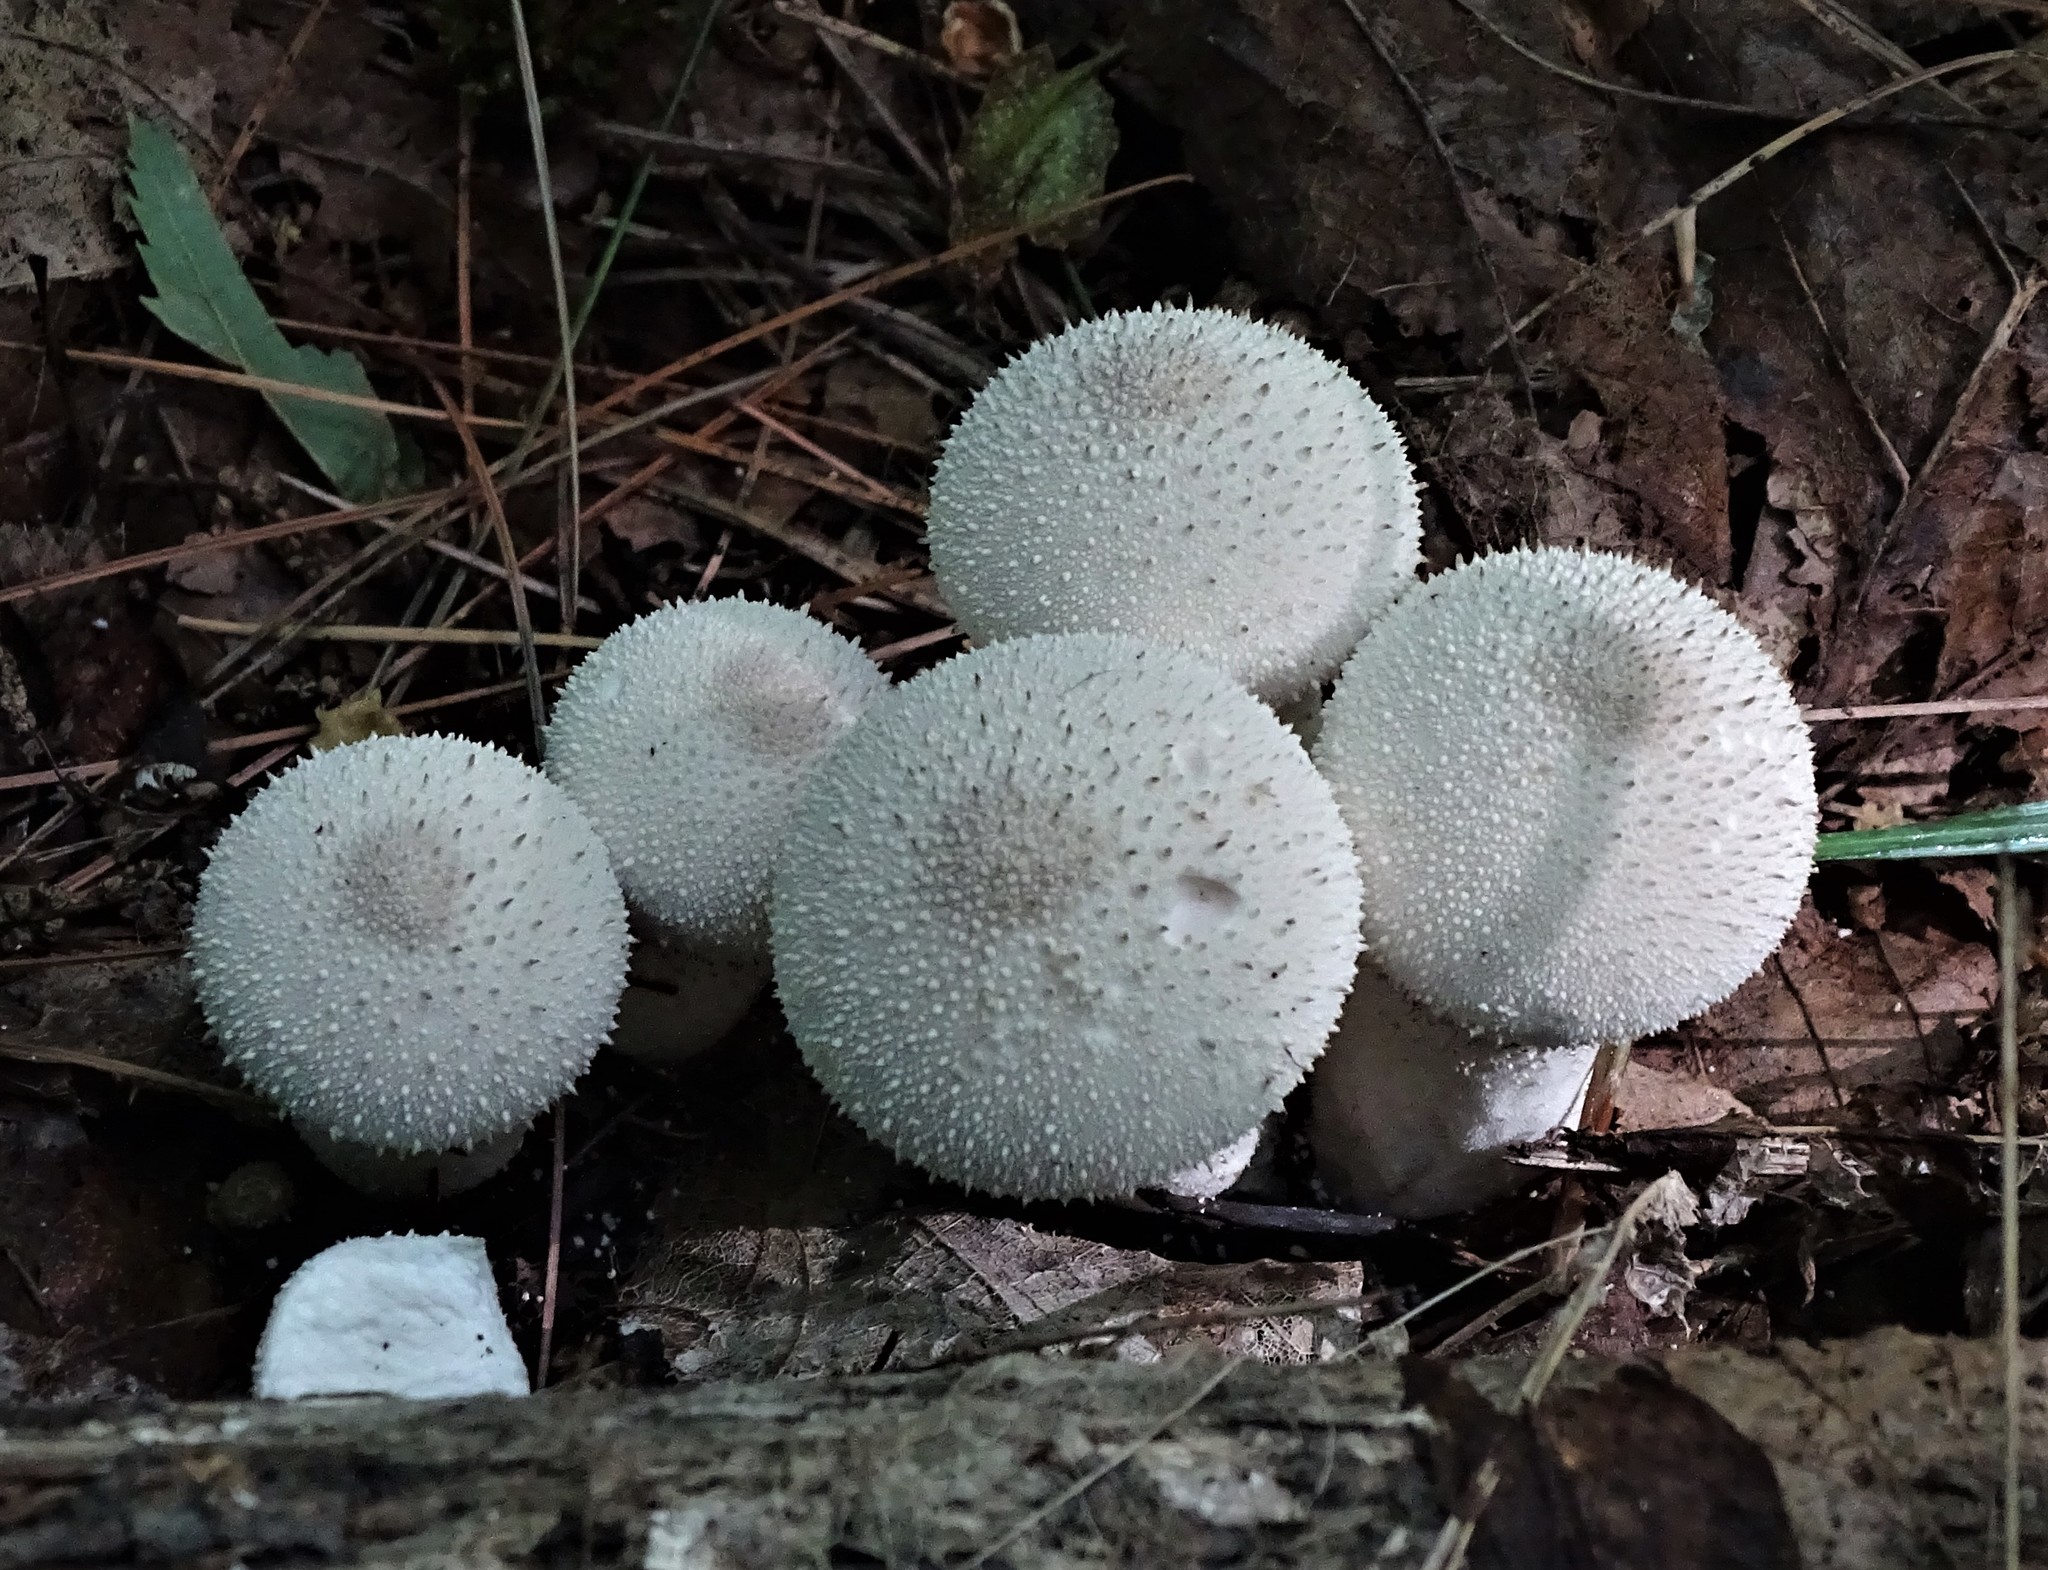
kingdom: Fungi
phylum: Basidiomycota
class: Agaricomycetes
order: Agaricales
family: Lycoperdaceae
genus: Lycoperdon
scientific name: Lycoperdon perlatum
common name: Common puffball
